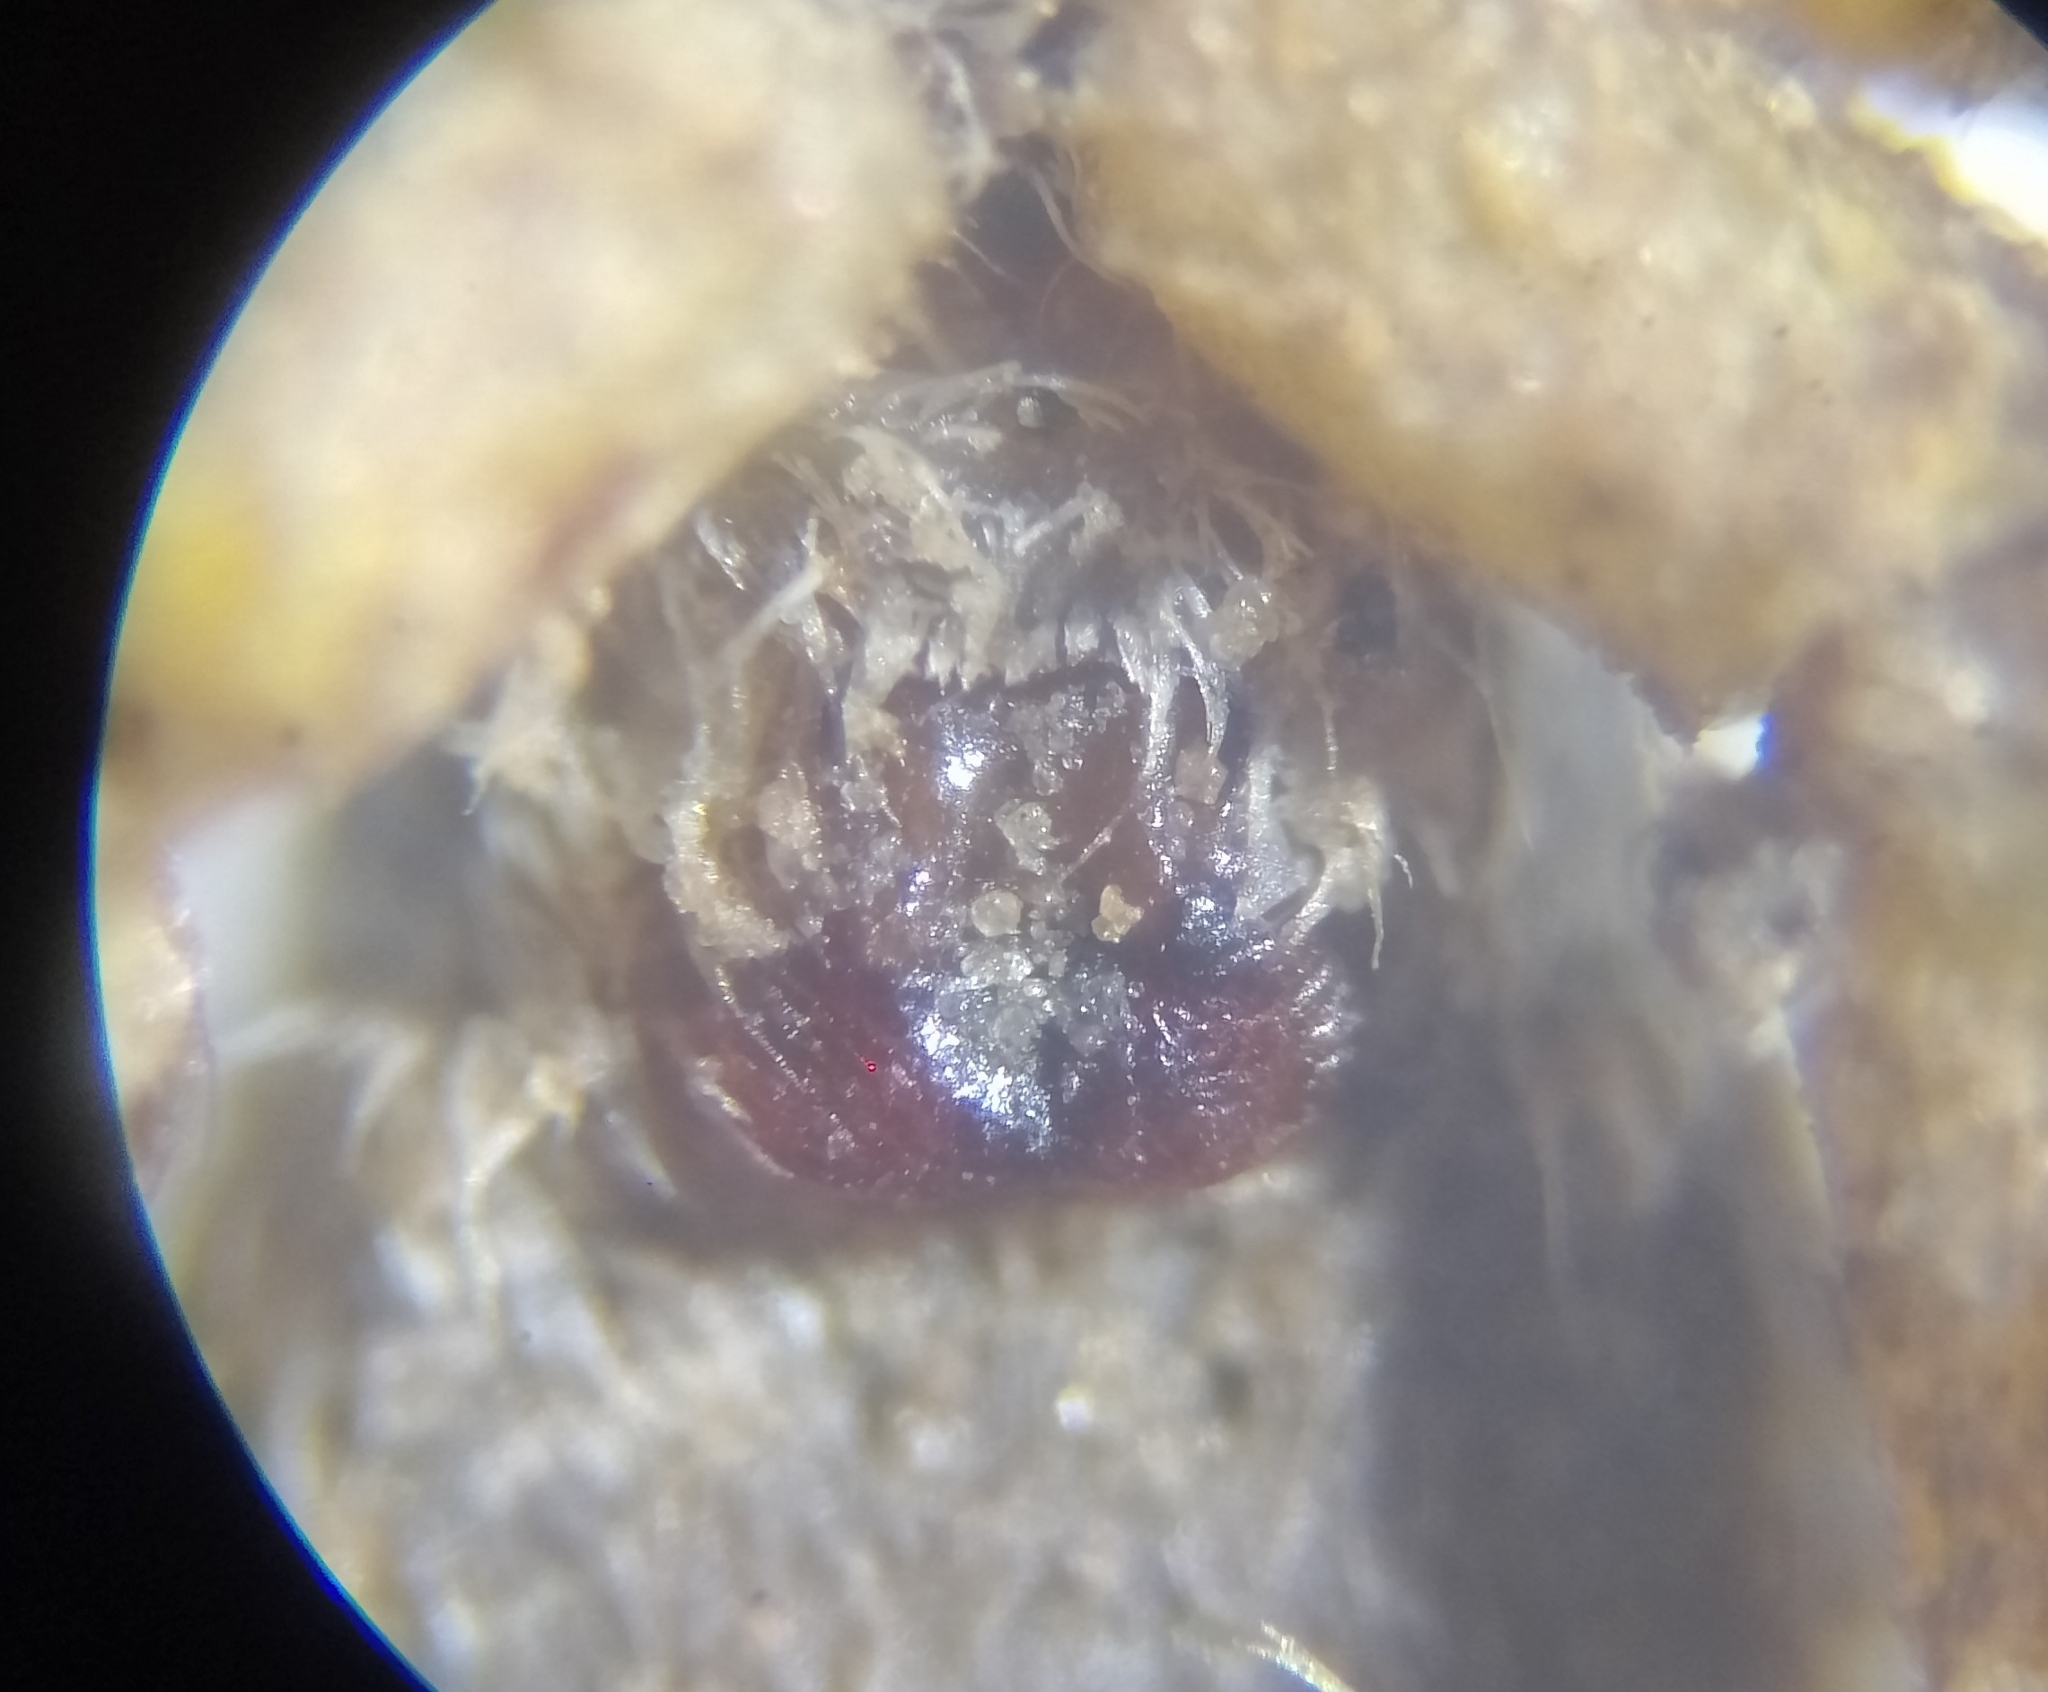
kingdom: Animalia
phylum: Arthropoda
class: Arachnida
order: Araneae
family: Lycosidae
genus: Pardosa
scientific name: Pardosa palustris
